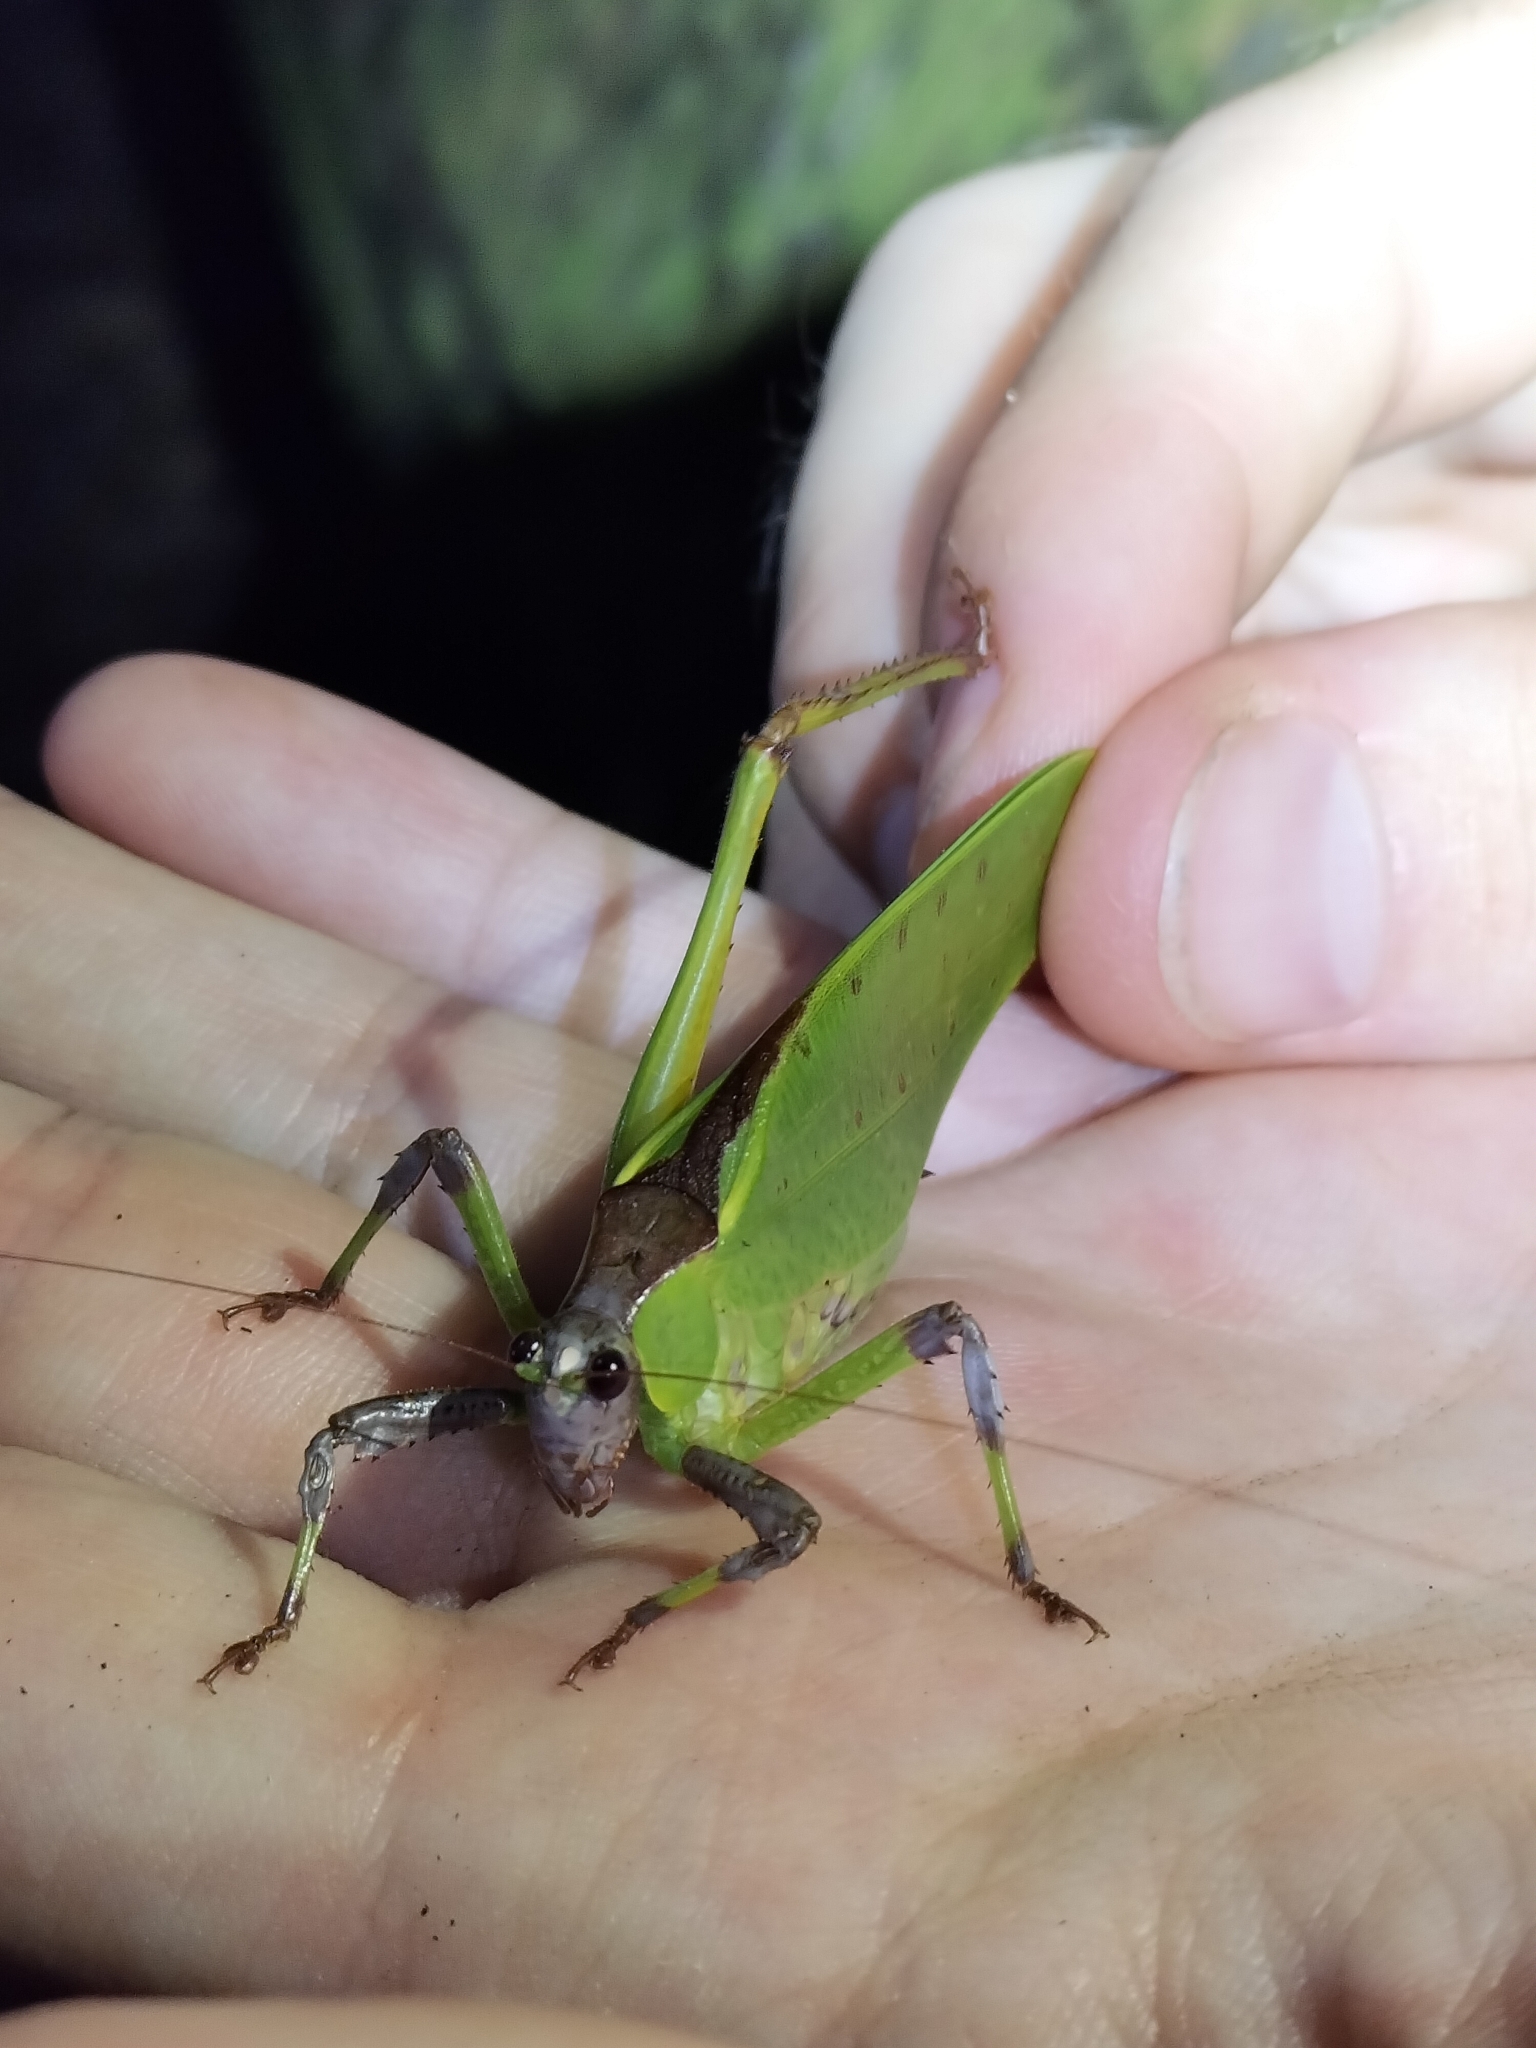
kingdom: Animalia
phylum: Arthropoda
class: Insecta
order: Orthoptera
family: Tettigoniidae
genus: Ephippitytha
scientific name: Ephippitytha kuranda
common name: Kuranda spotted katydid
